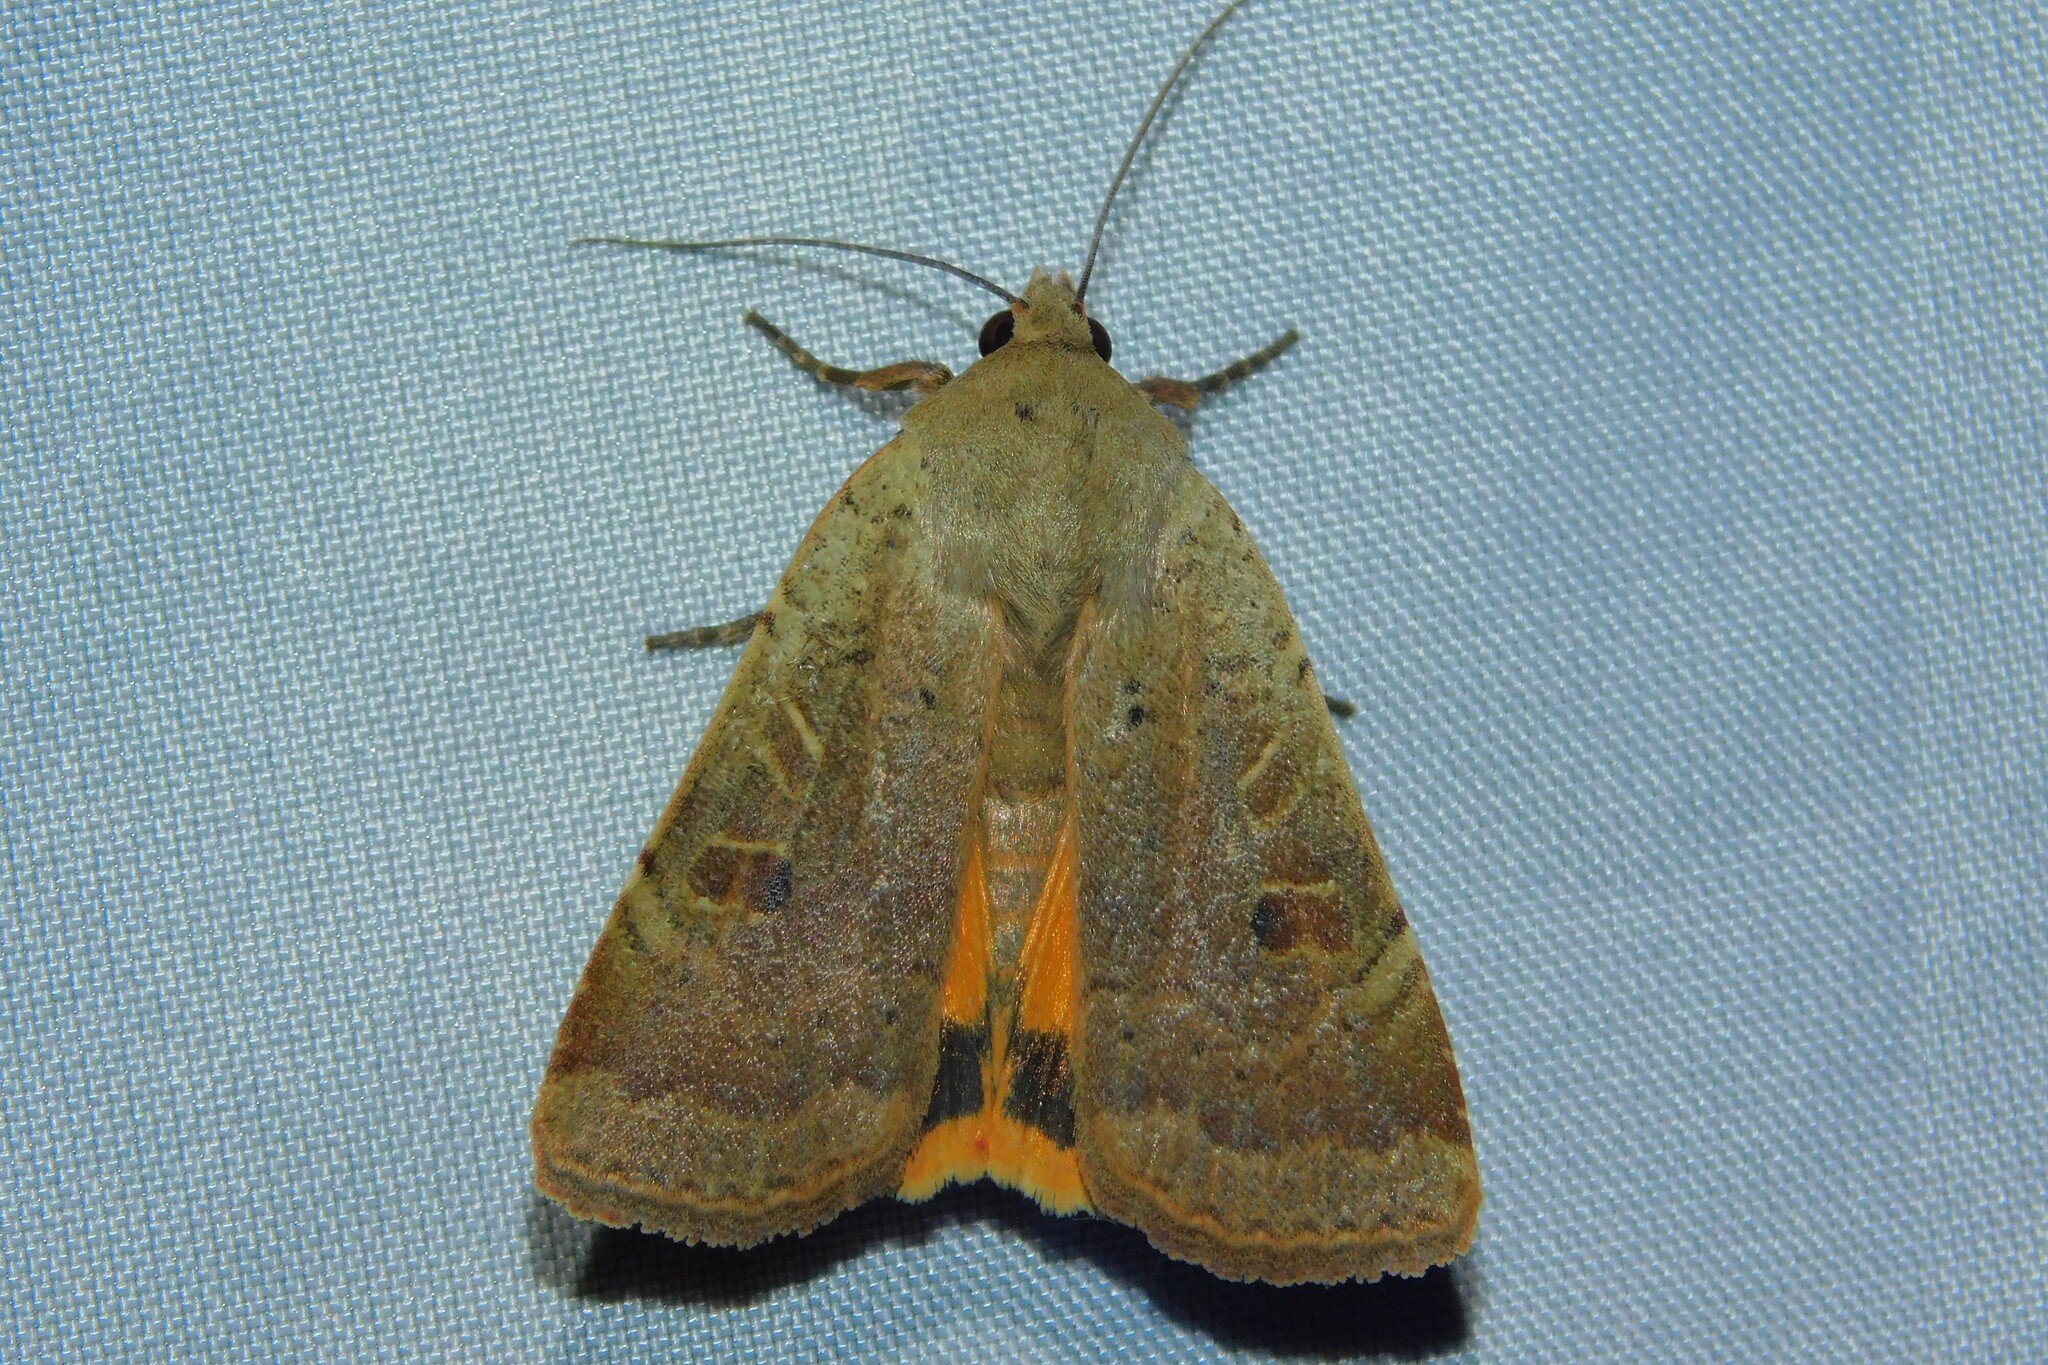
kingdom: Animalia
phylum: Arthropoda
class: Insecta
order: Lepidoptera
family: Noctuidae
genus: Noctua
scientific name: Noctua comes
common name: Lesser yellow underwing
